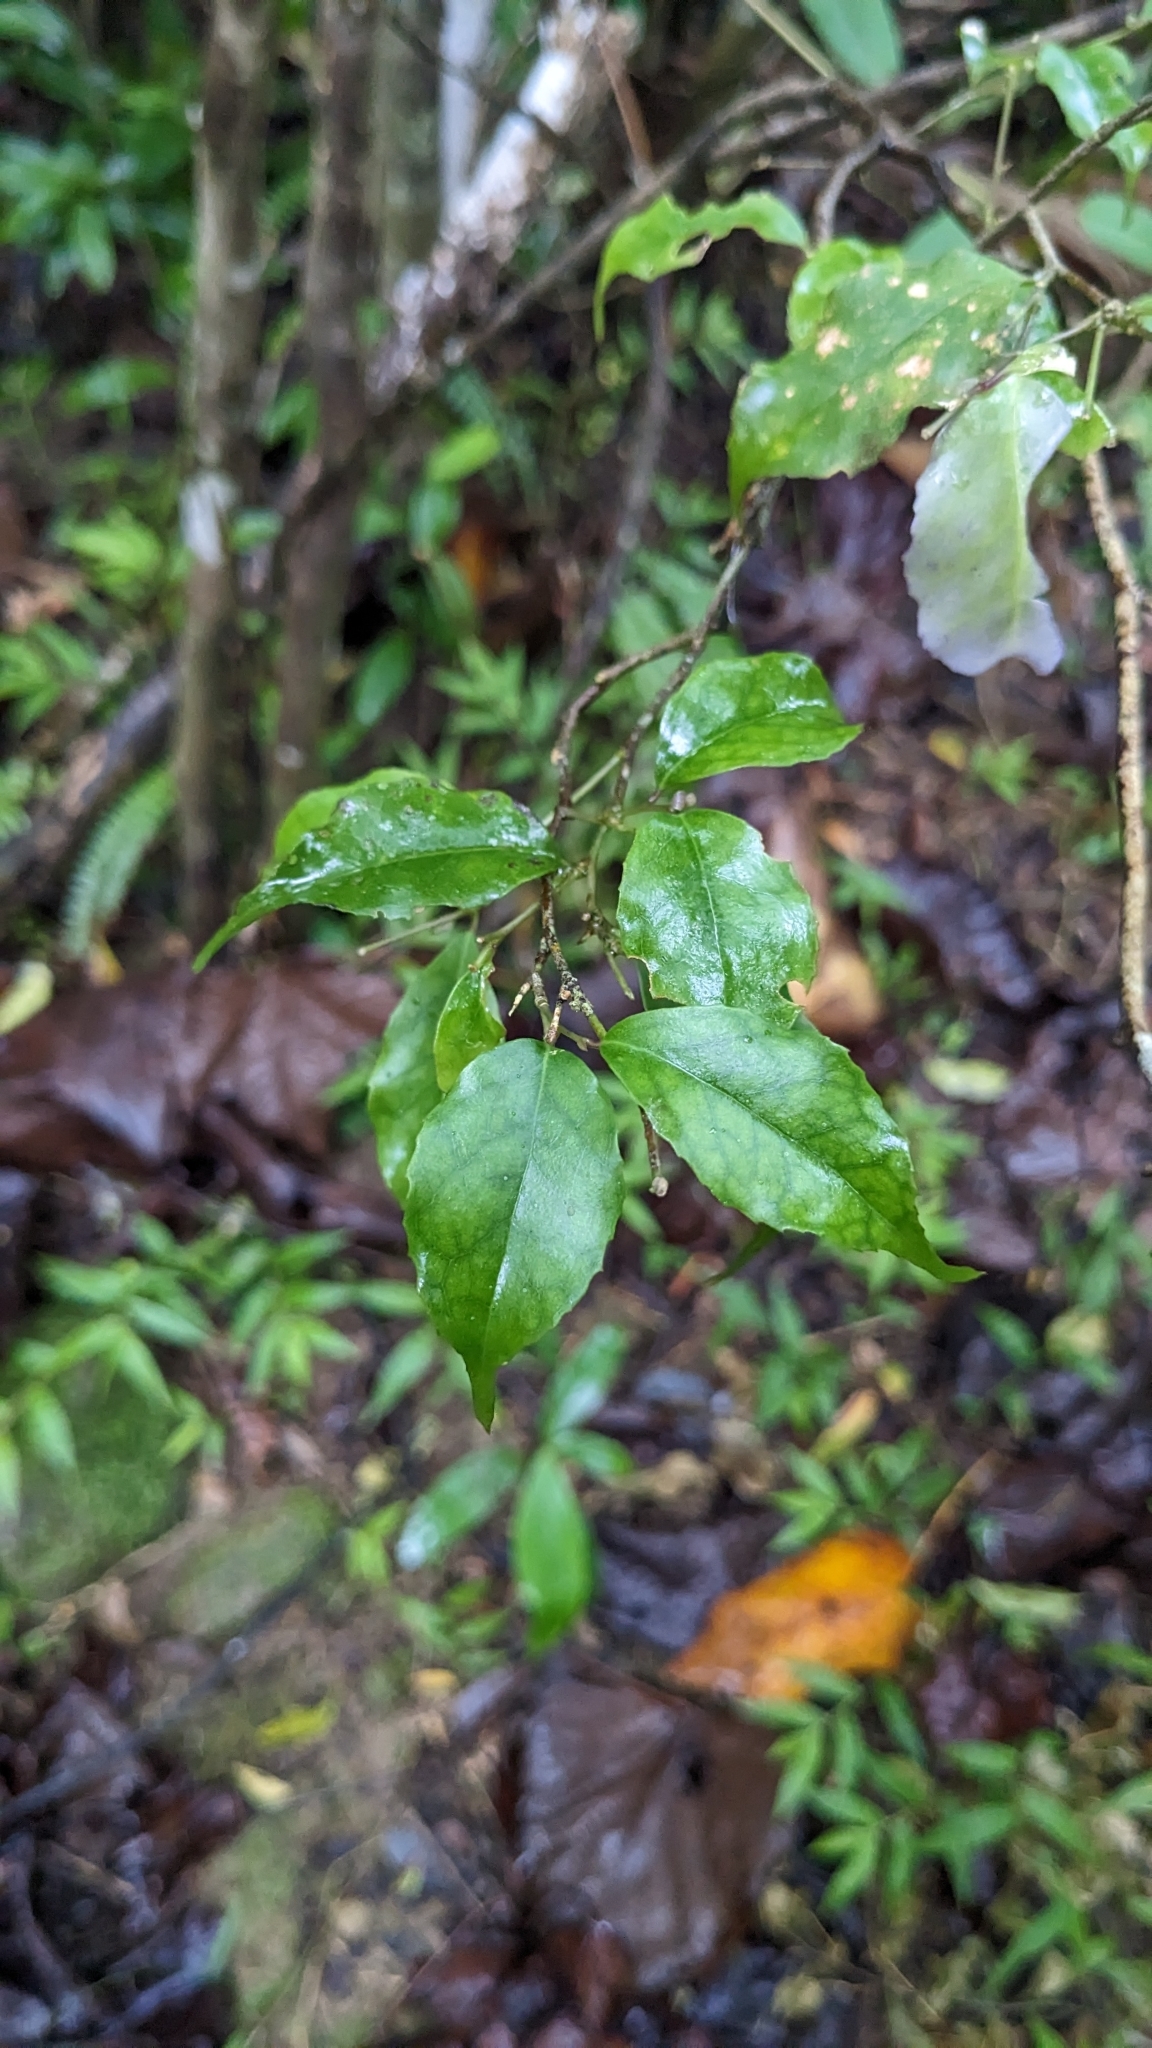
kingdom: Plantae
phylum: Tracheophyta
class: Magnoliopsida
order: Ericales
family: Symplocaceae
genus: Symplocos
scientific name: Symplocos sumuntia
